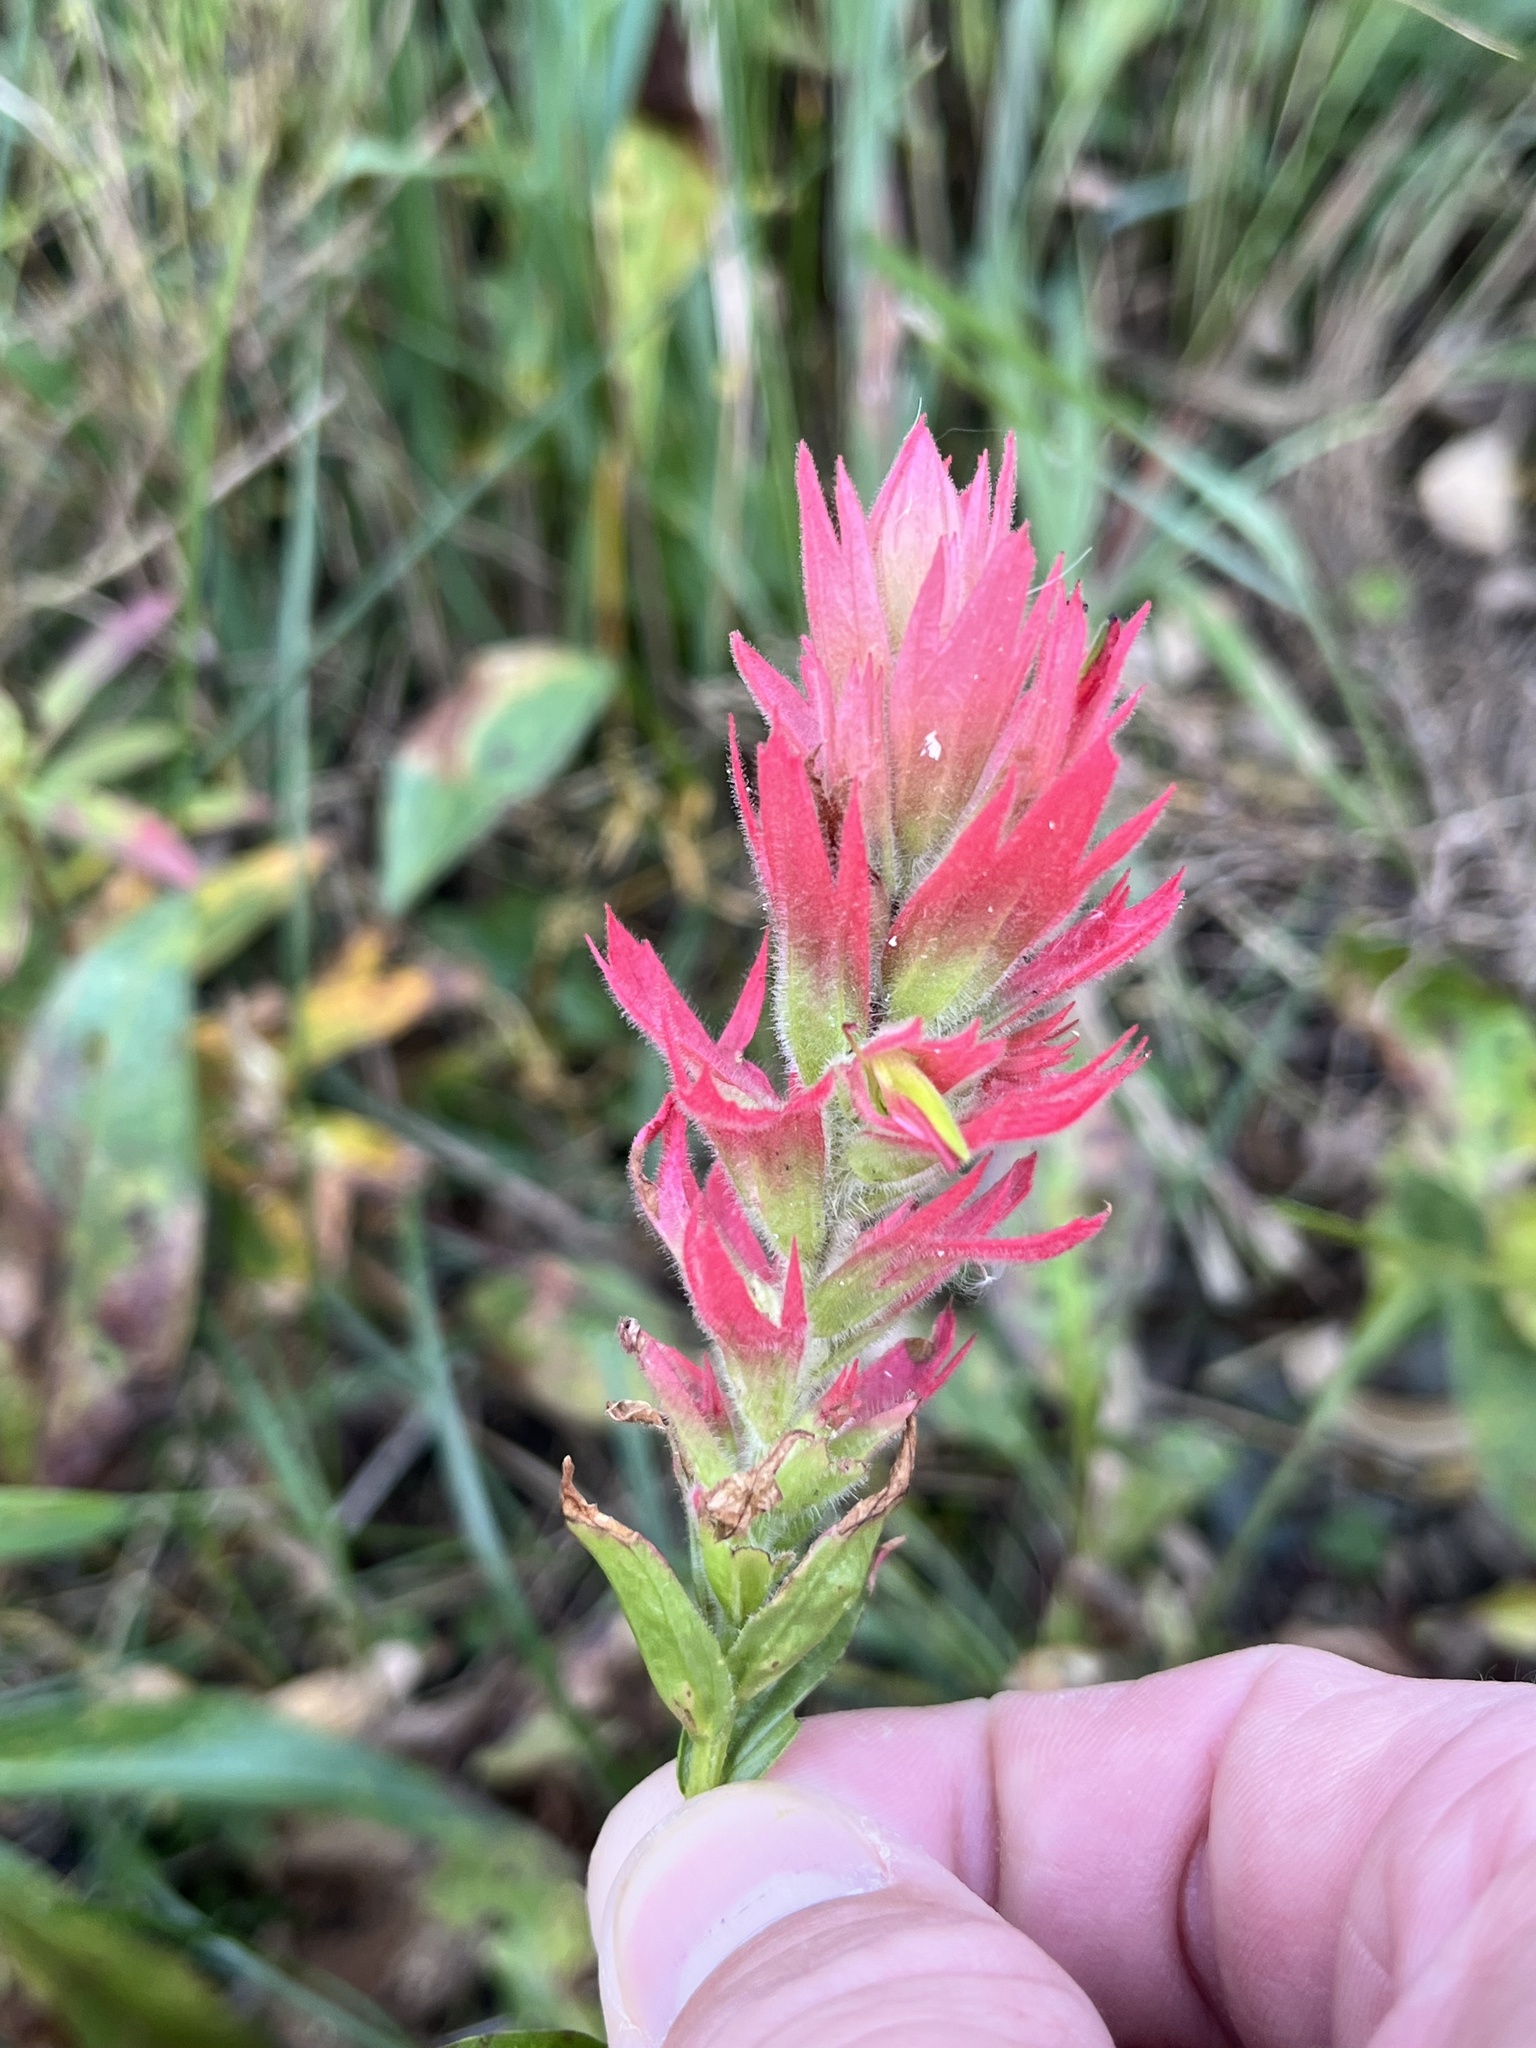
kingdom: Plantae
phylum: Tracheophyta
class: Magnoliopsida
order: Lamiales
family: Orobanchaceae
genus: Castilleja
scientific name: Castilleja miniata
